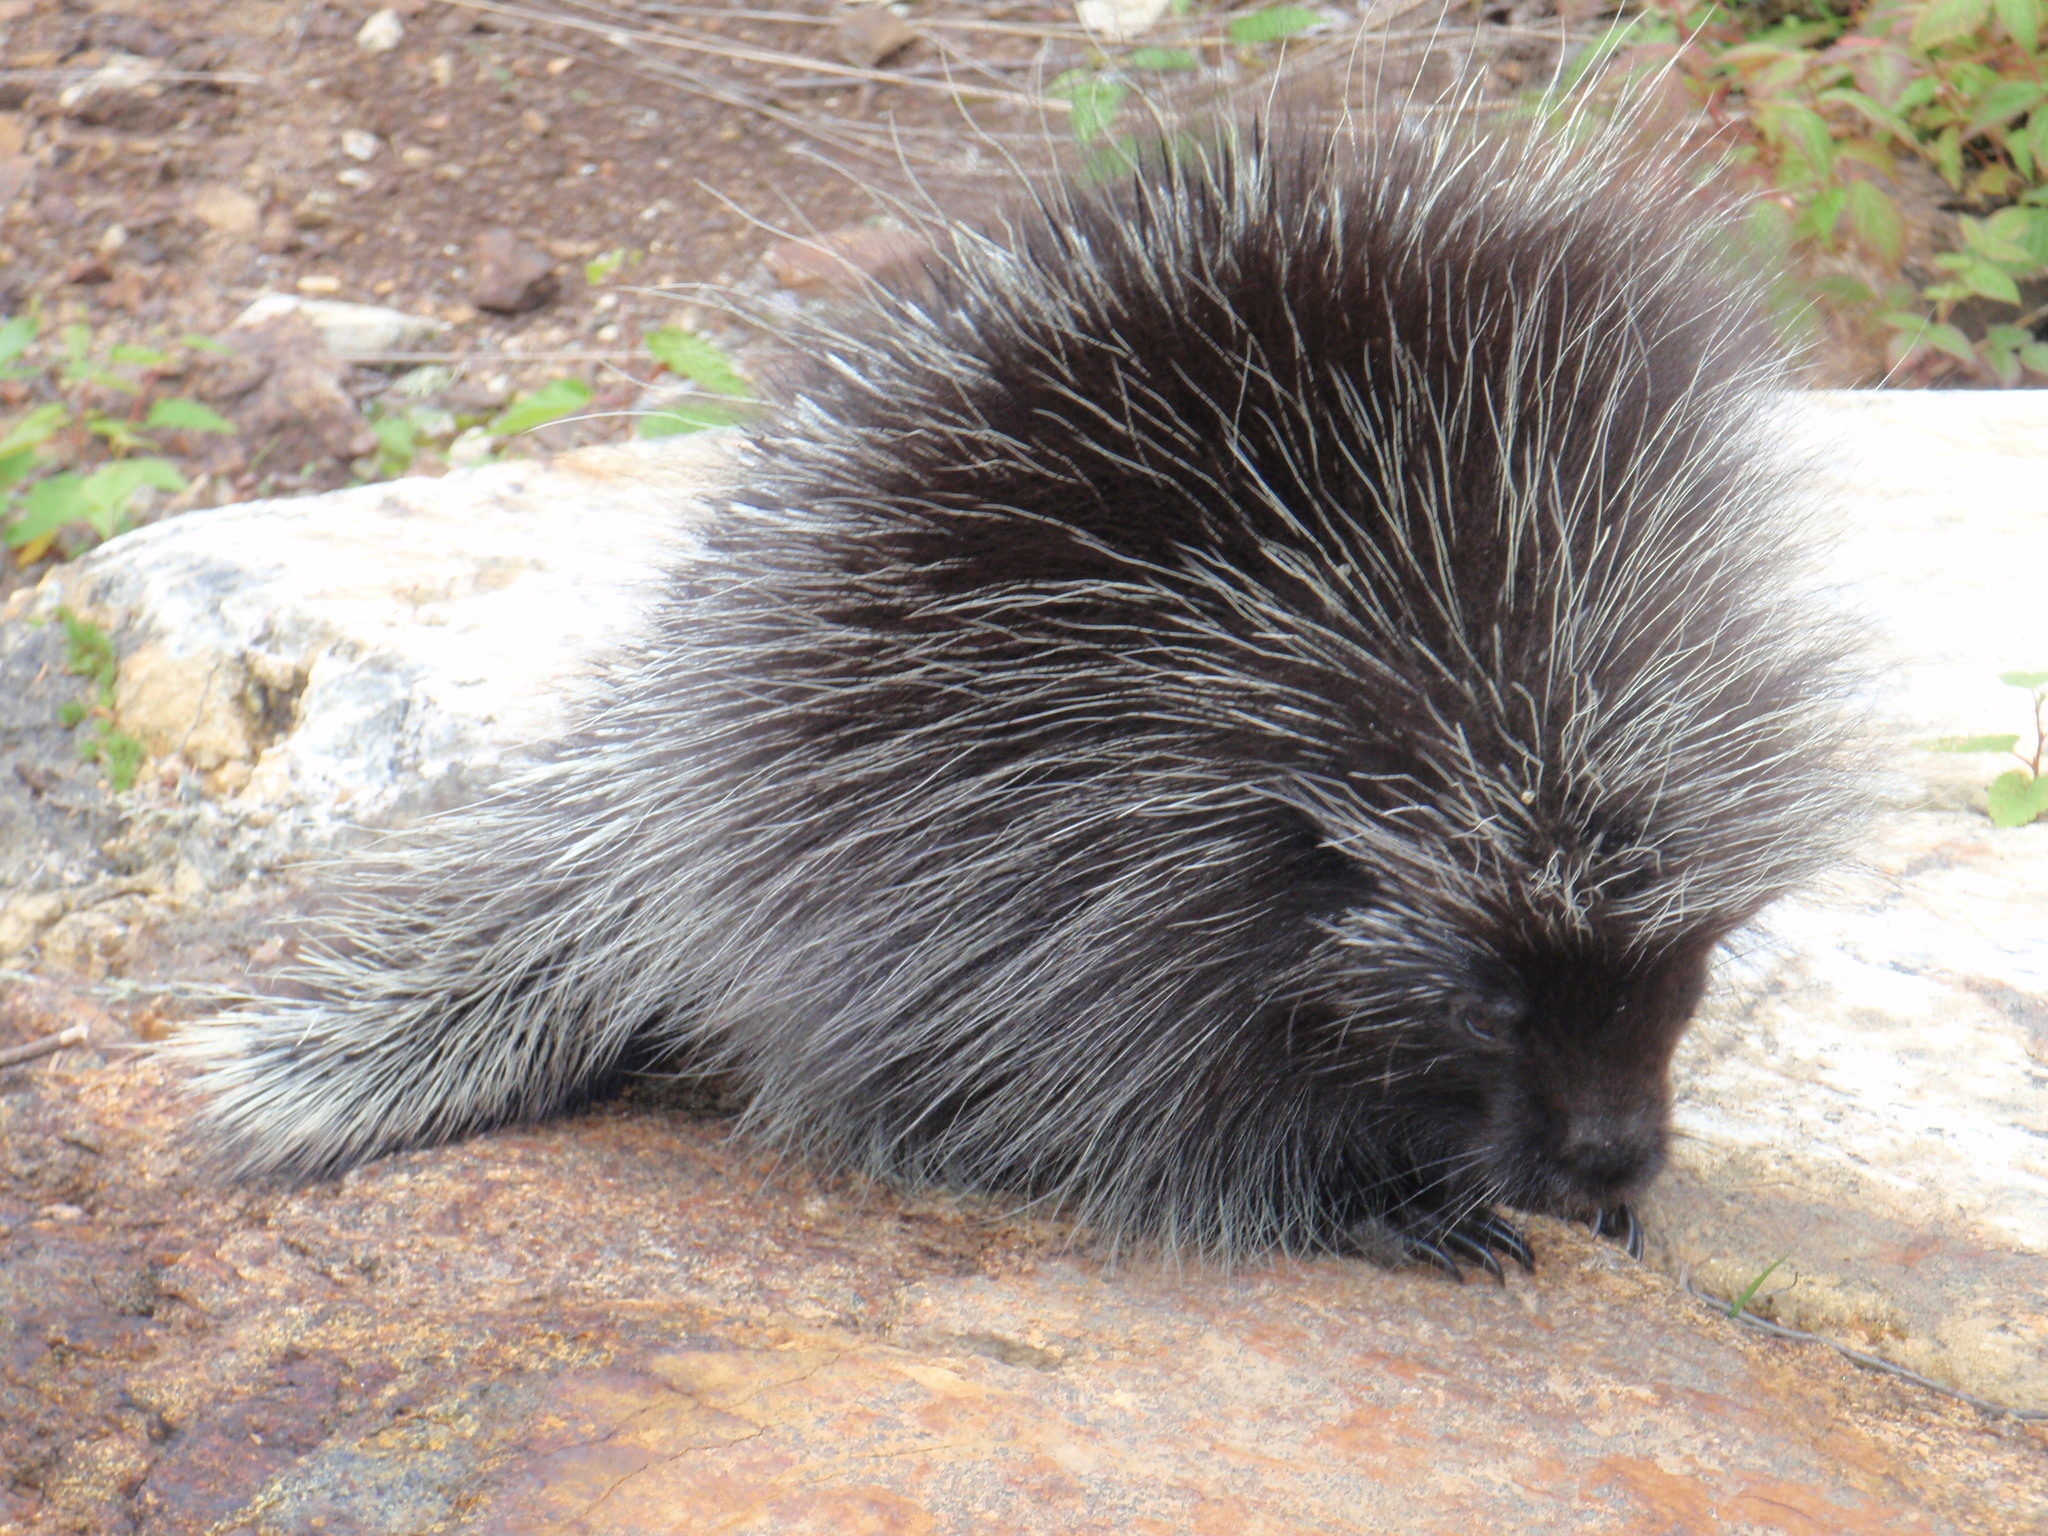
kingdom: Animalia
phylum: Chordata
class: Mammalia
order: Rodentia
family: Erethizontidae
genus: Erethizon
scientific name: Erethizon dorsatus
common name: North american porcupine
